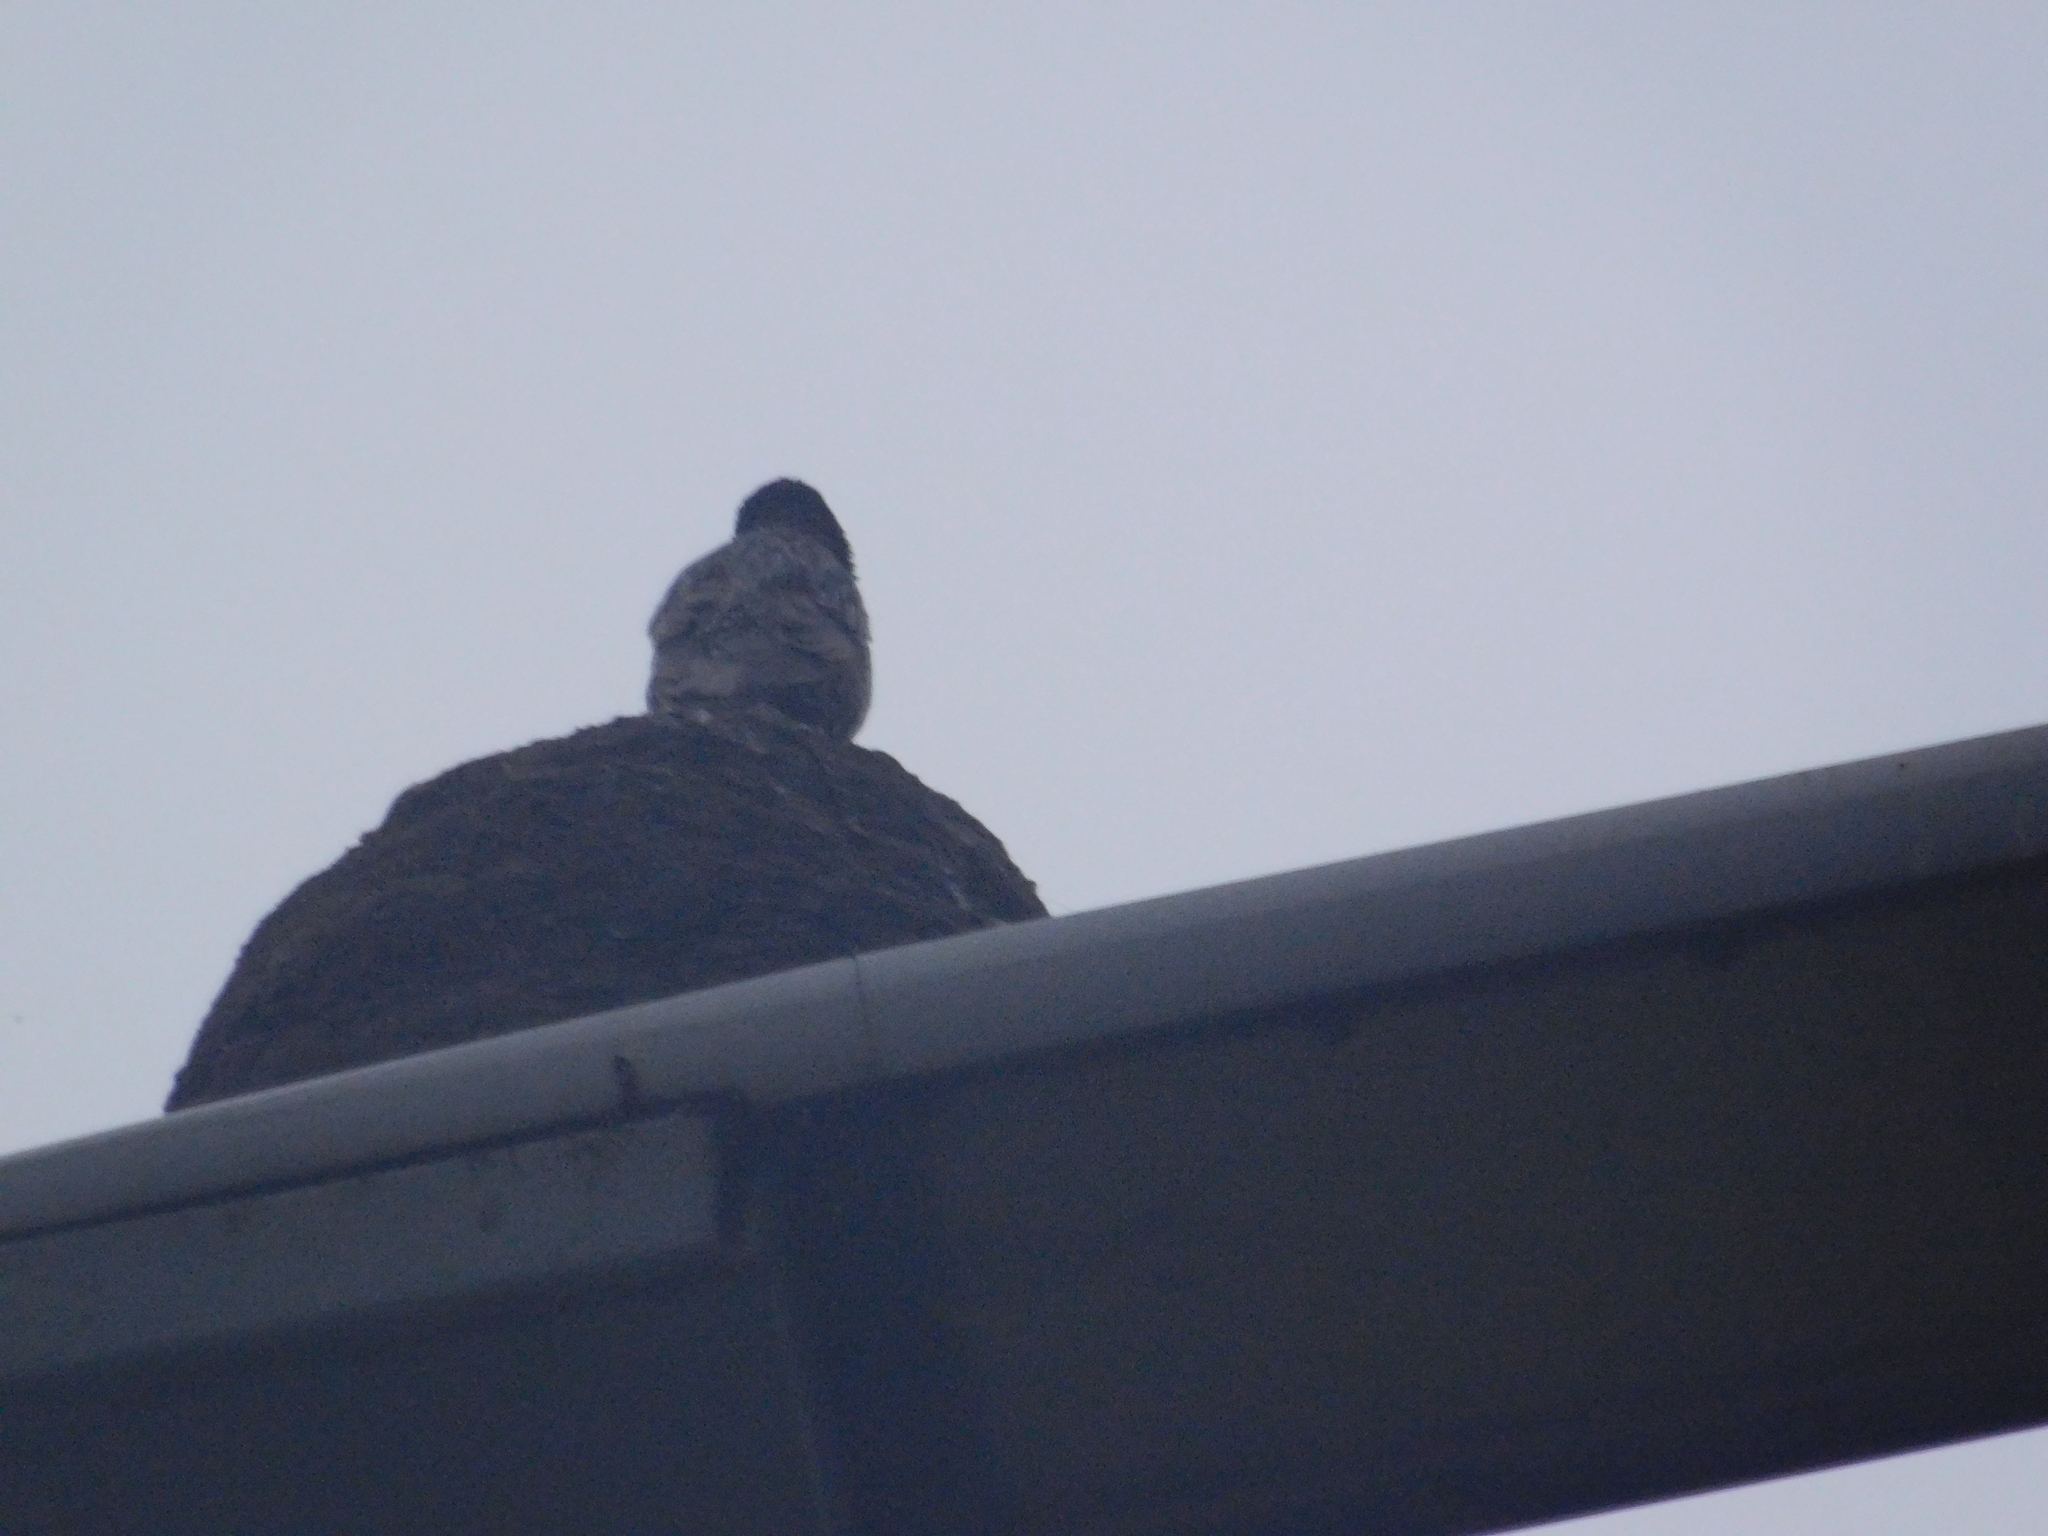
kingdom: Animalia
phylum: Chordata
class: Aves
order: Passeriformes
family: Sturnidae
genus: Sturnus
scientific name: Sturnus vulgaris
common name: Common starling
